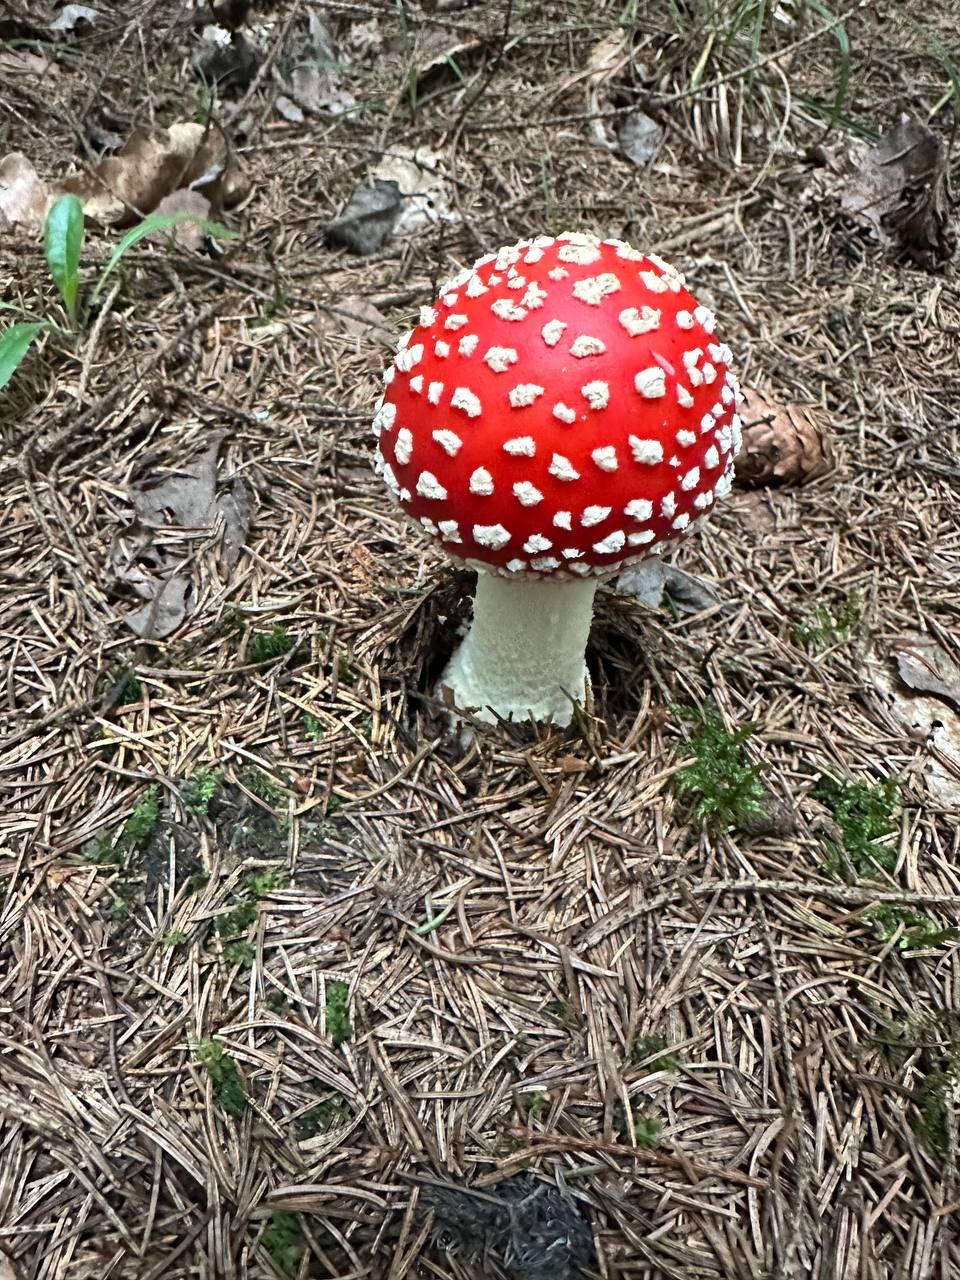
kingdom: Fungi
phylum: Basidiomycota
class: Agaricomycetes
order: Agaricales
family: Amanitaceae
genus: Amanita
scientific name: Amanita muscaria
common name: Fly agaric
